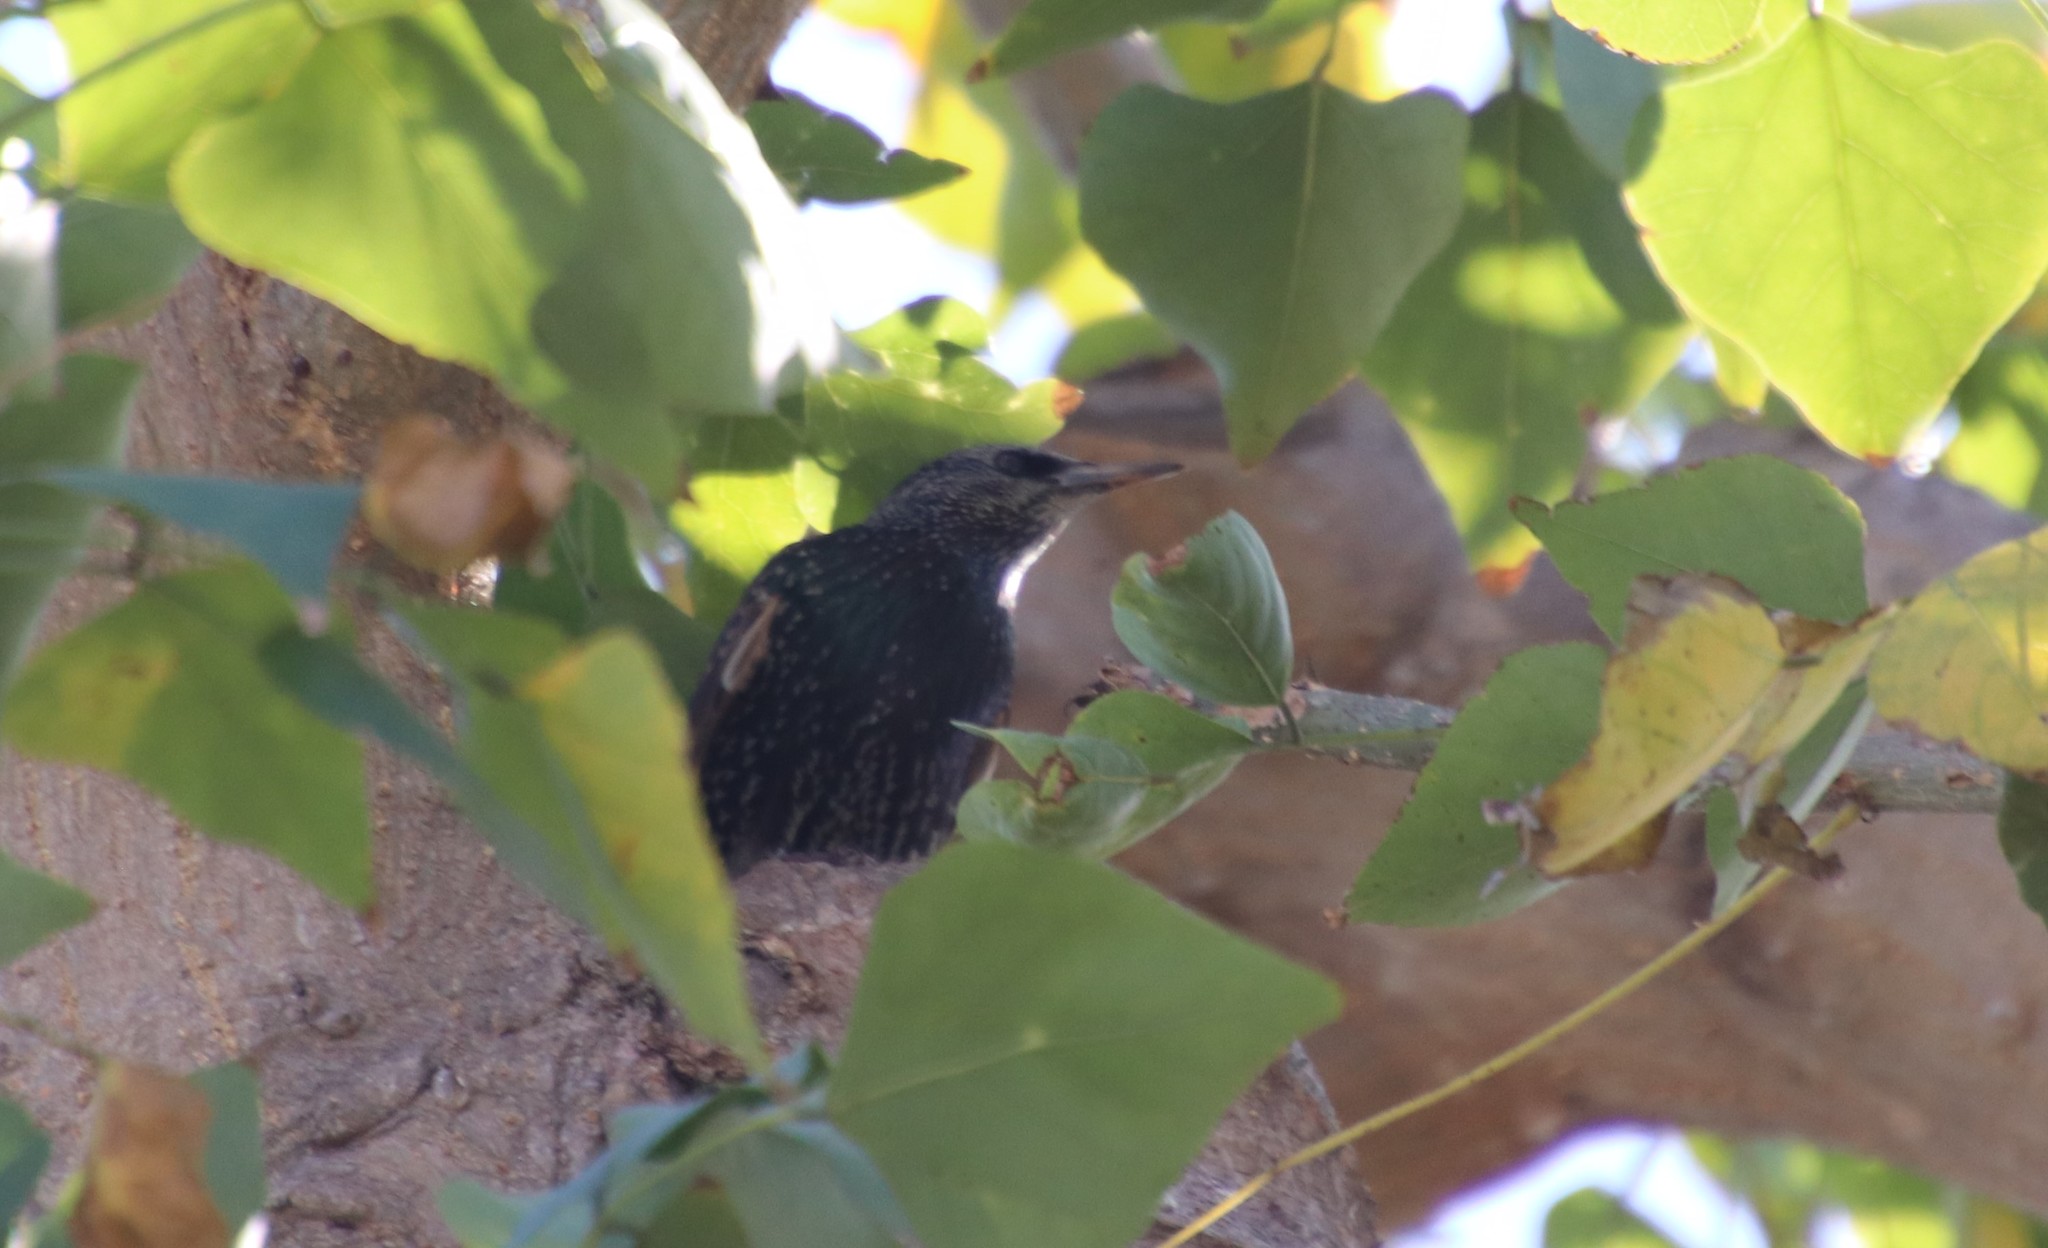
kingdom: Animalia
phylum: Chordata
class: Aves
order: Passeriformes
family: Sturnidae
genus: Sturnus
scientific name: Sturnus vulgaris
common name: Common starling
